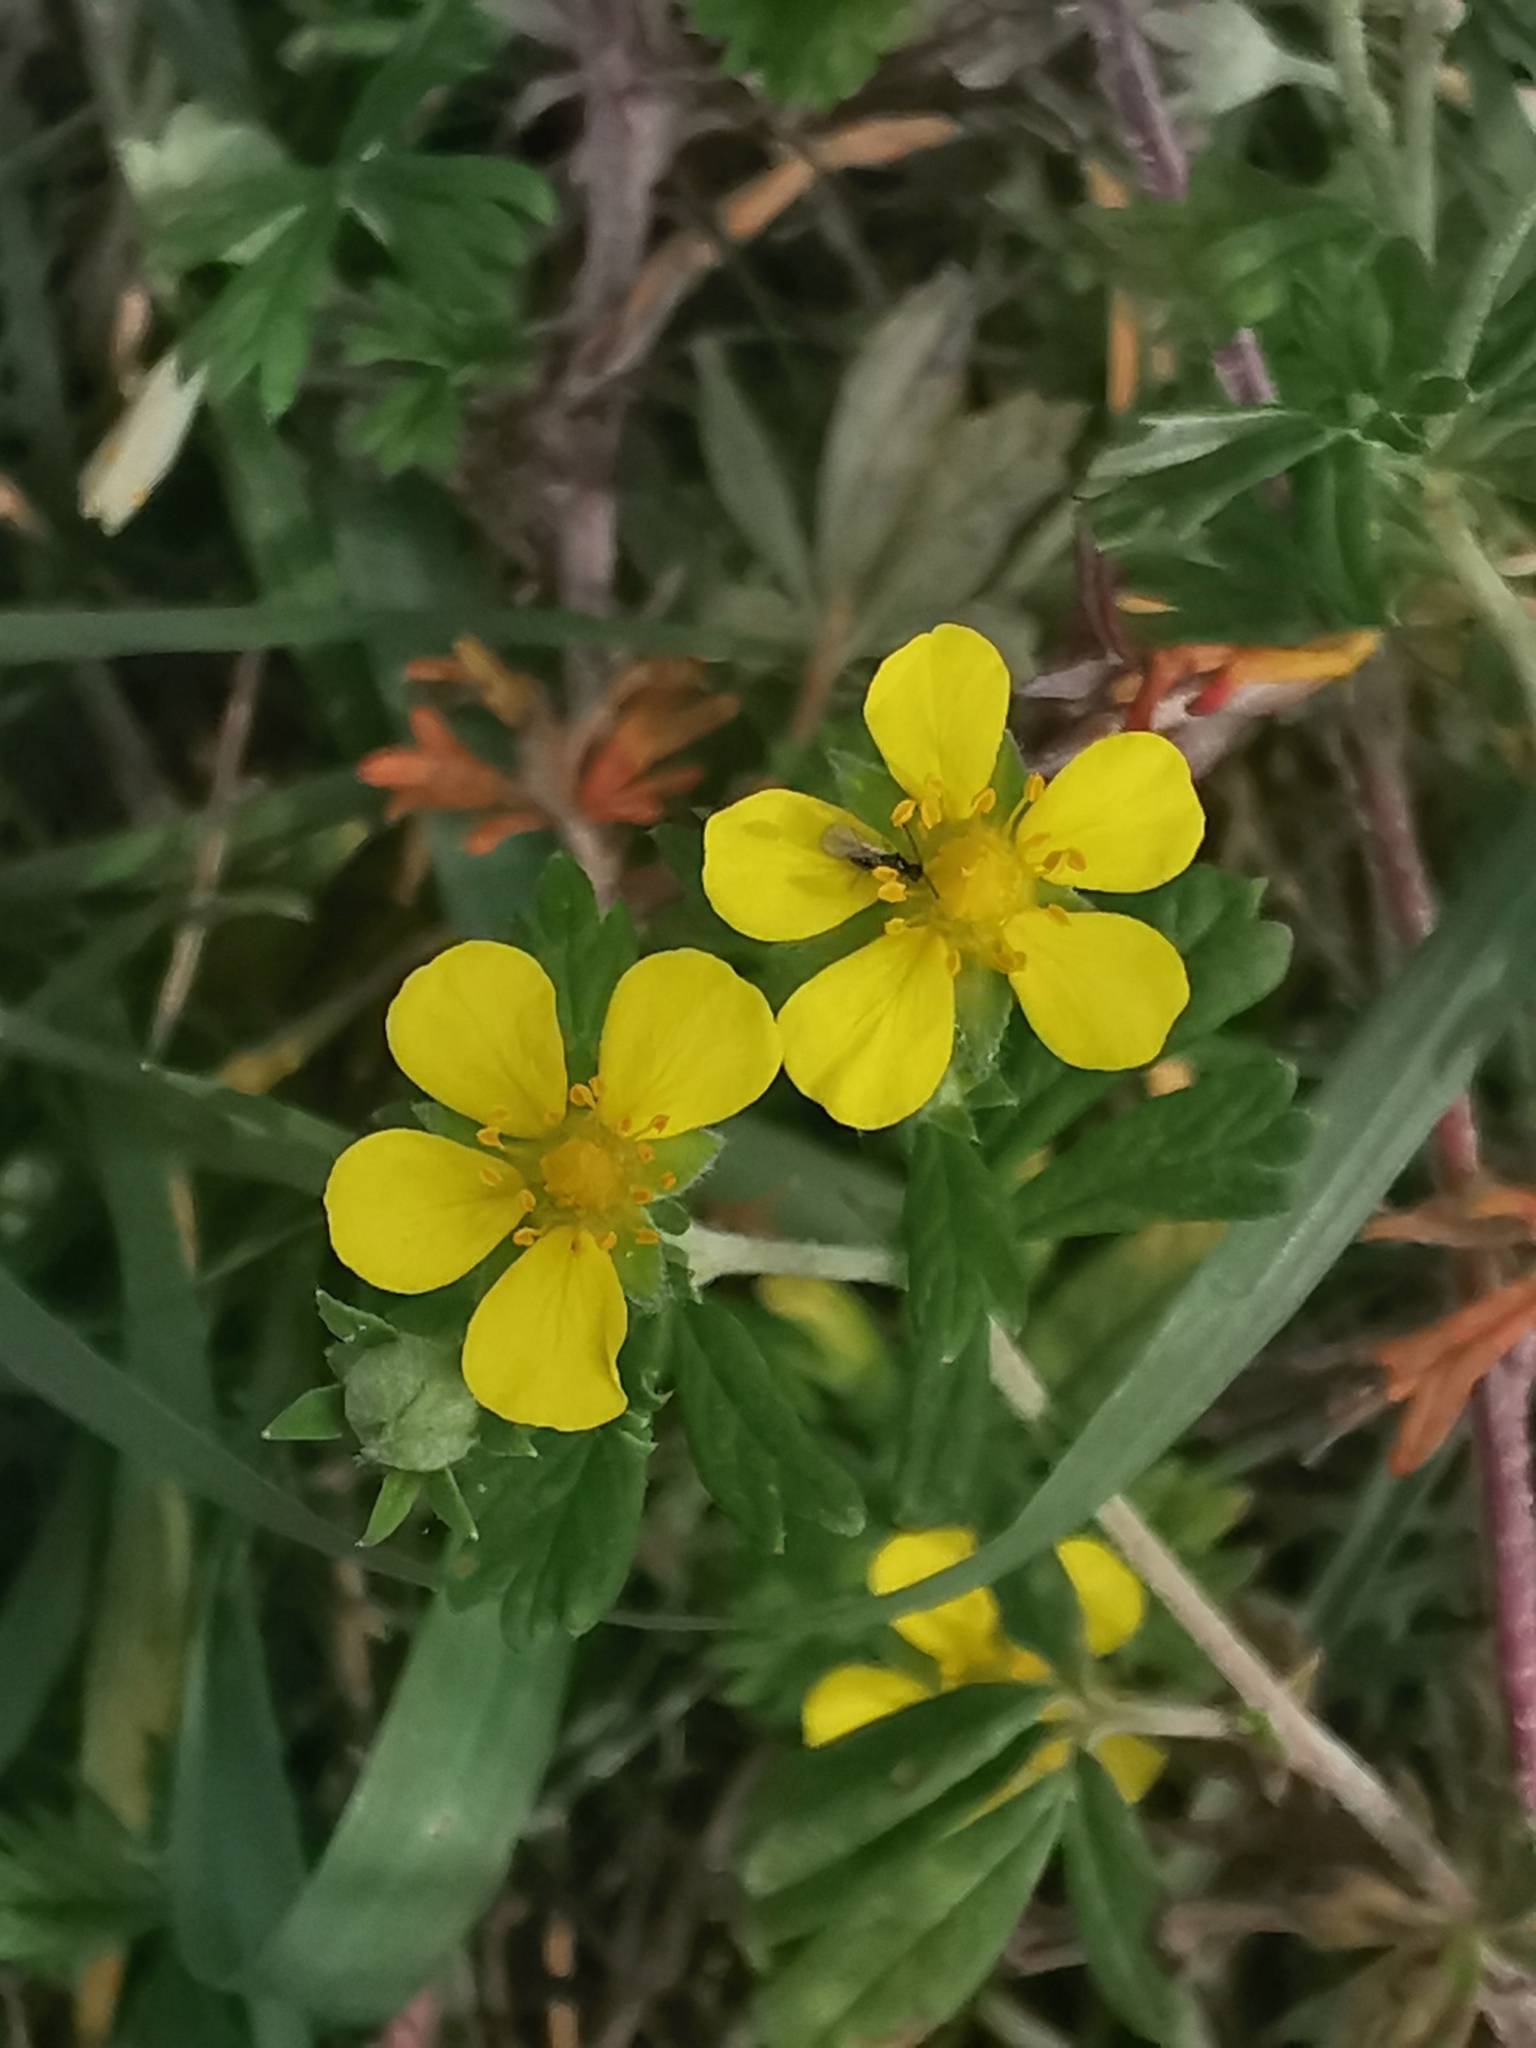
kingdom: Plantae
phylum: Tracheophyta
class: Magnoliopsida
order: Rosales
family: Rosaceae
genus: Potentilla
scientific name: Potentilla argentea
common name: Hoary cinquefoil
